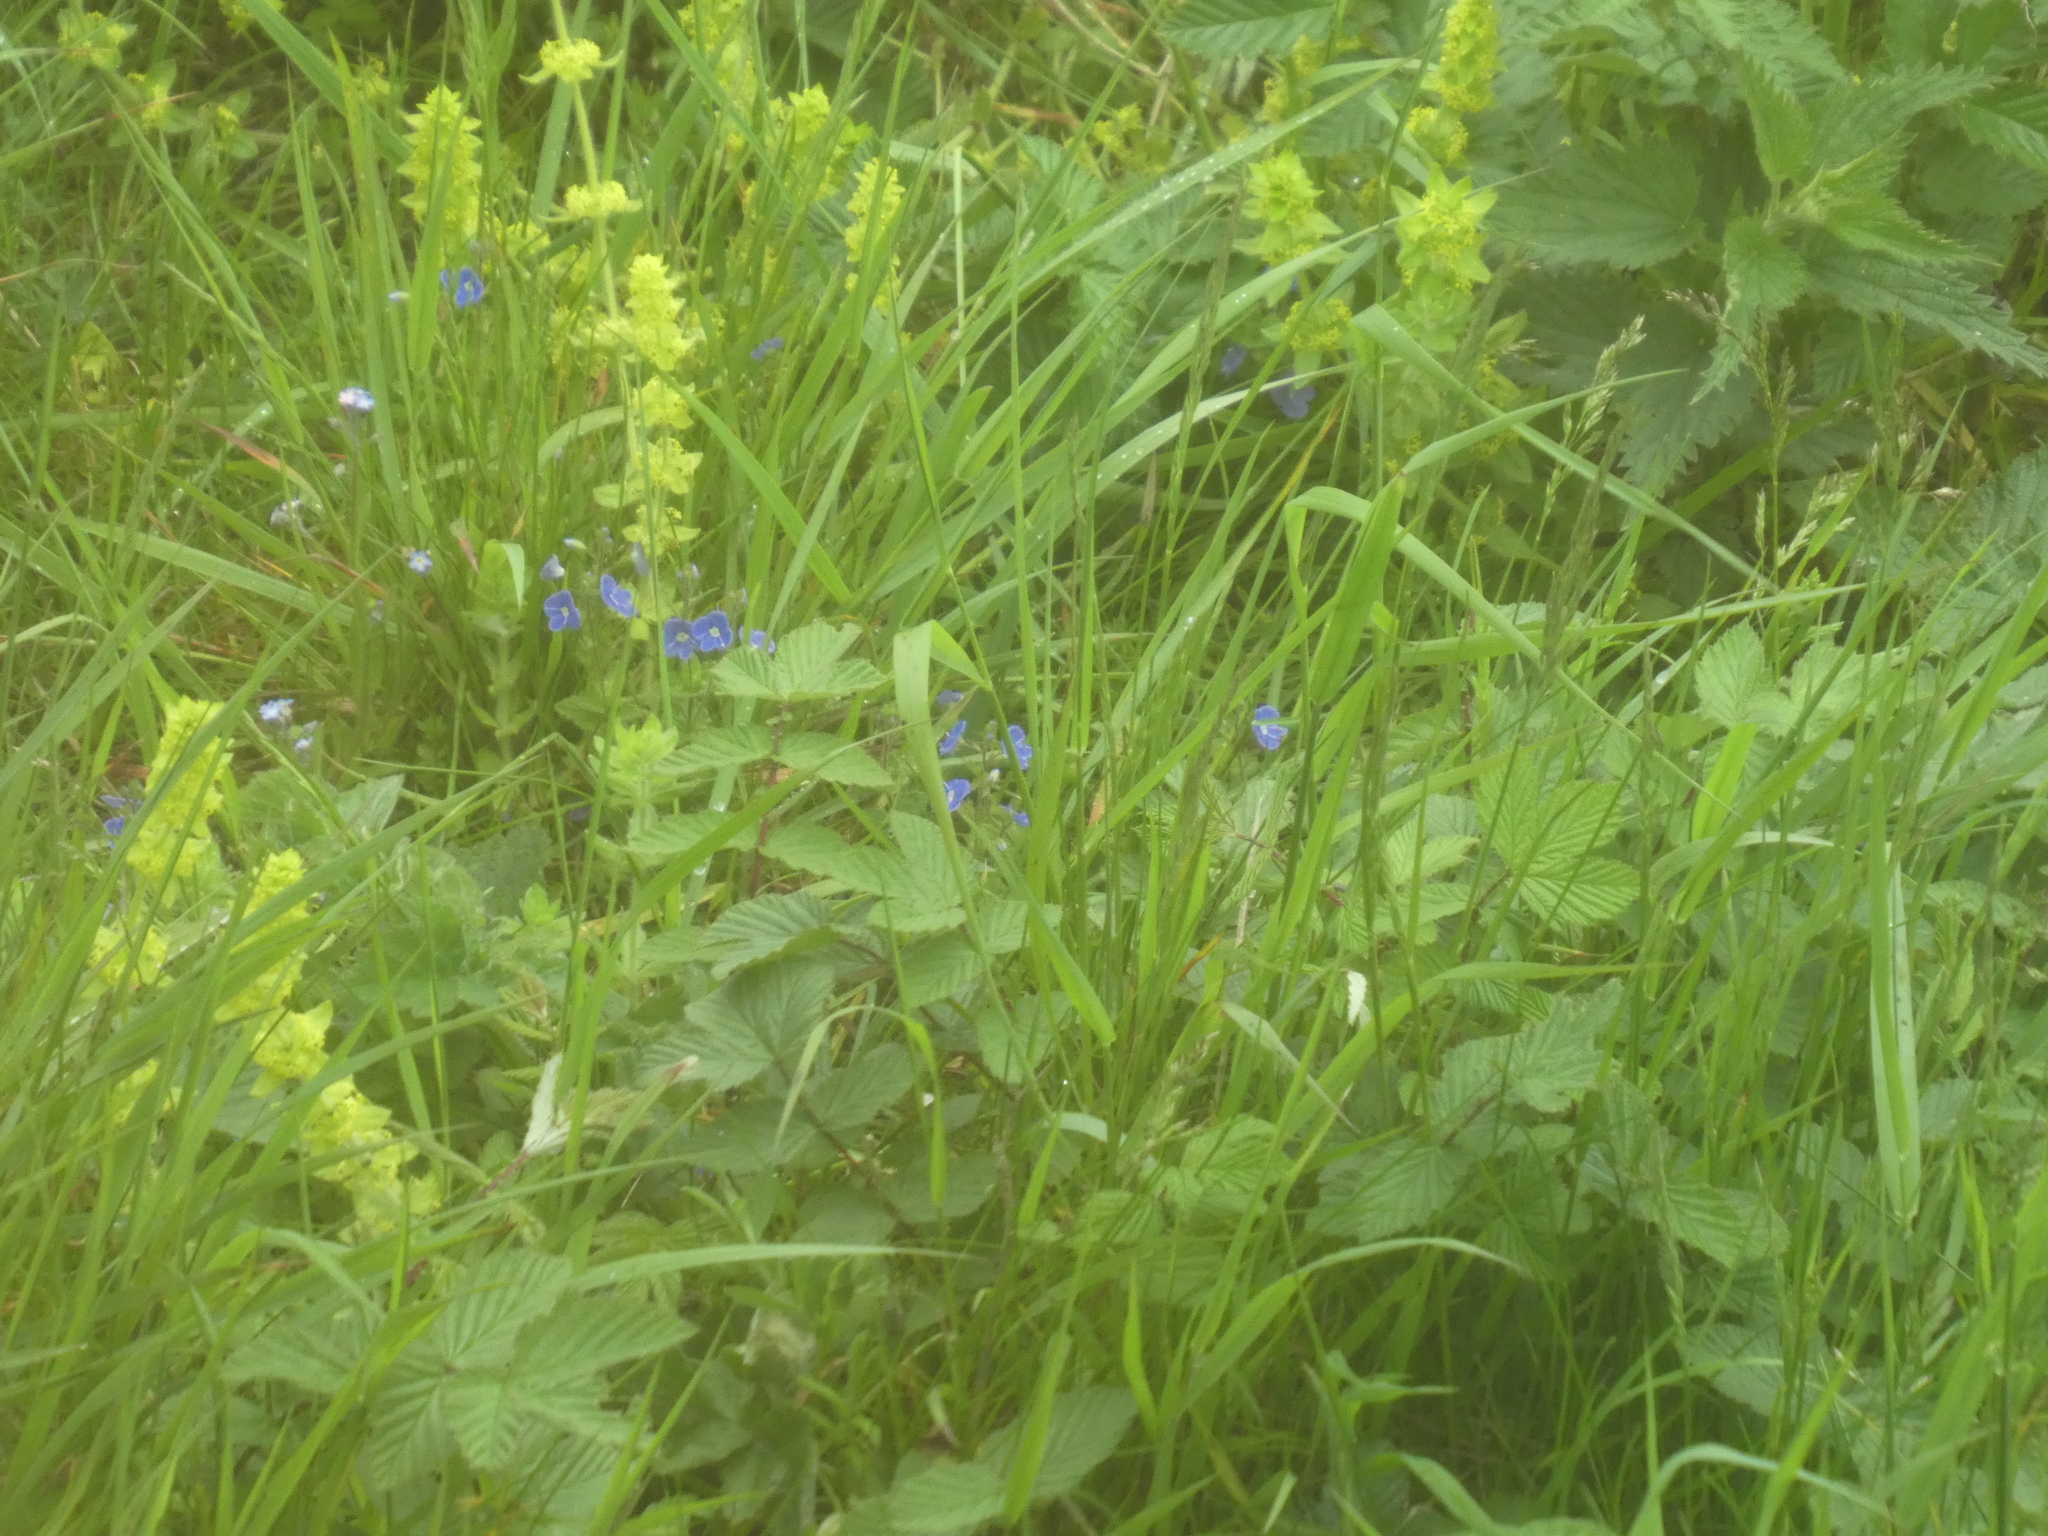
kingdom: Plantae
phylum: Tracheophyta
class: Magnoliopsida
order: Lamiales
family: Plantaginaceae
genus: Veronica
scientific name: Veronica chamaedrys
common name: Germander speedwell
